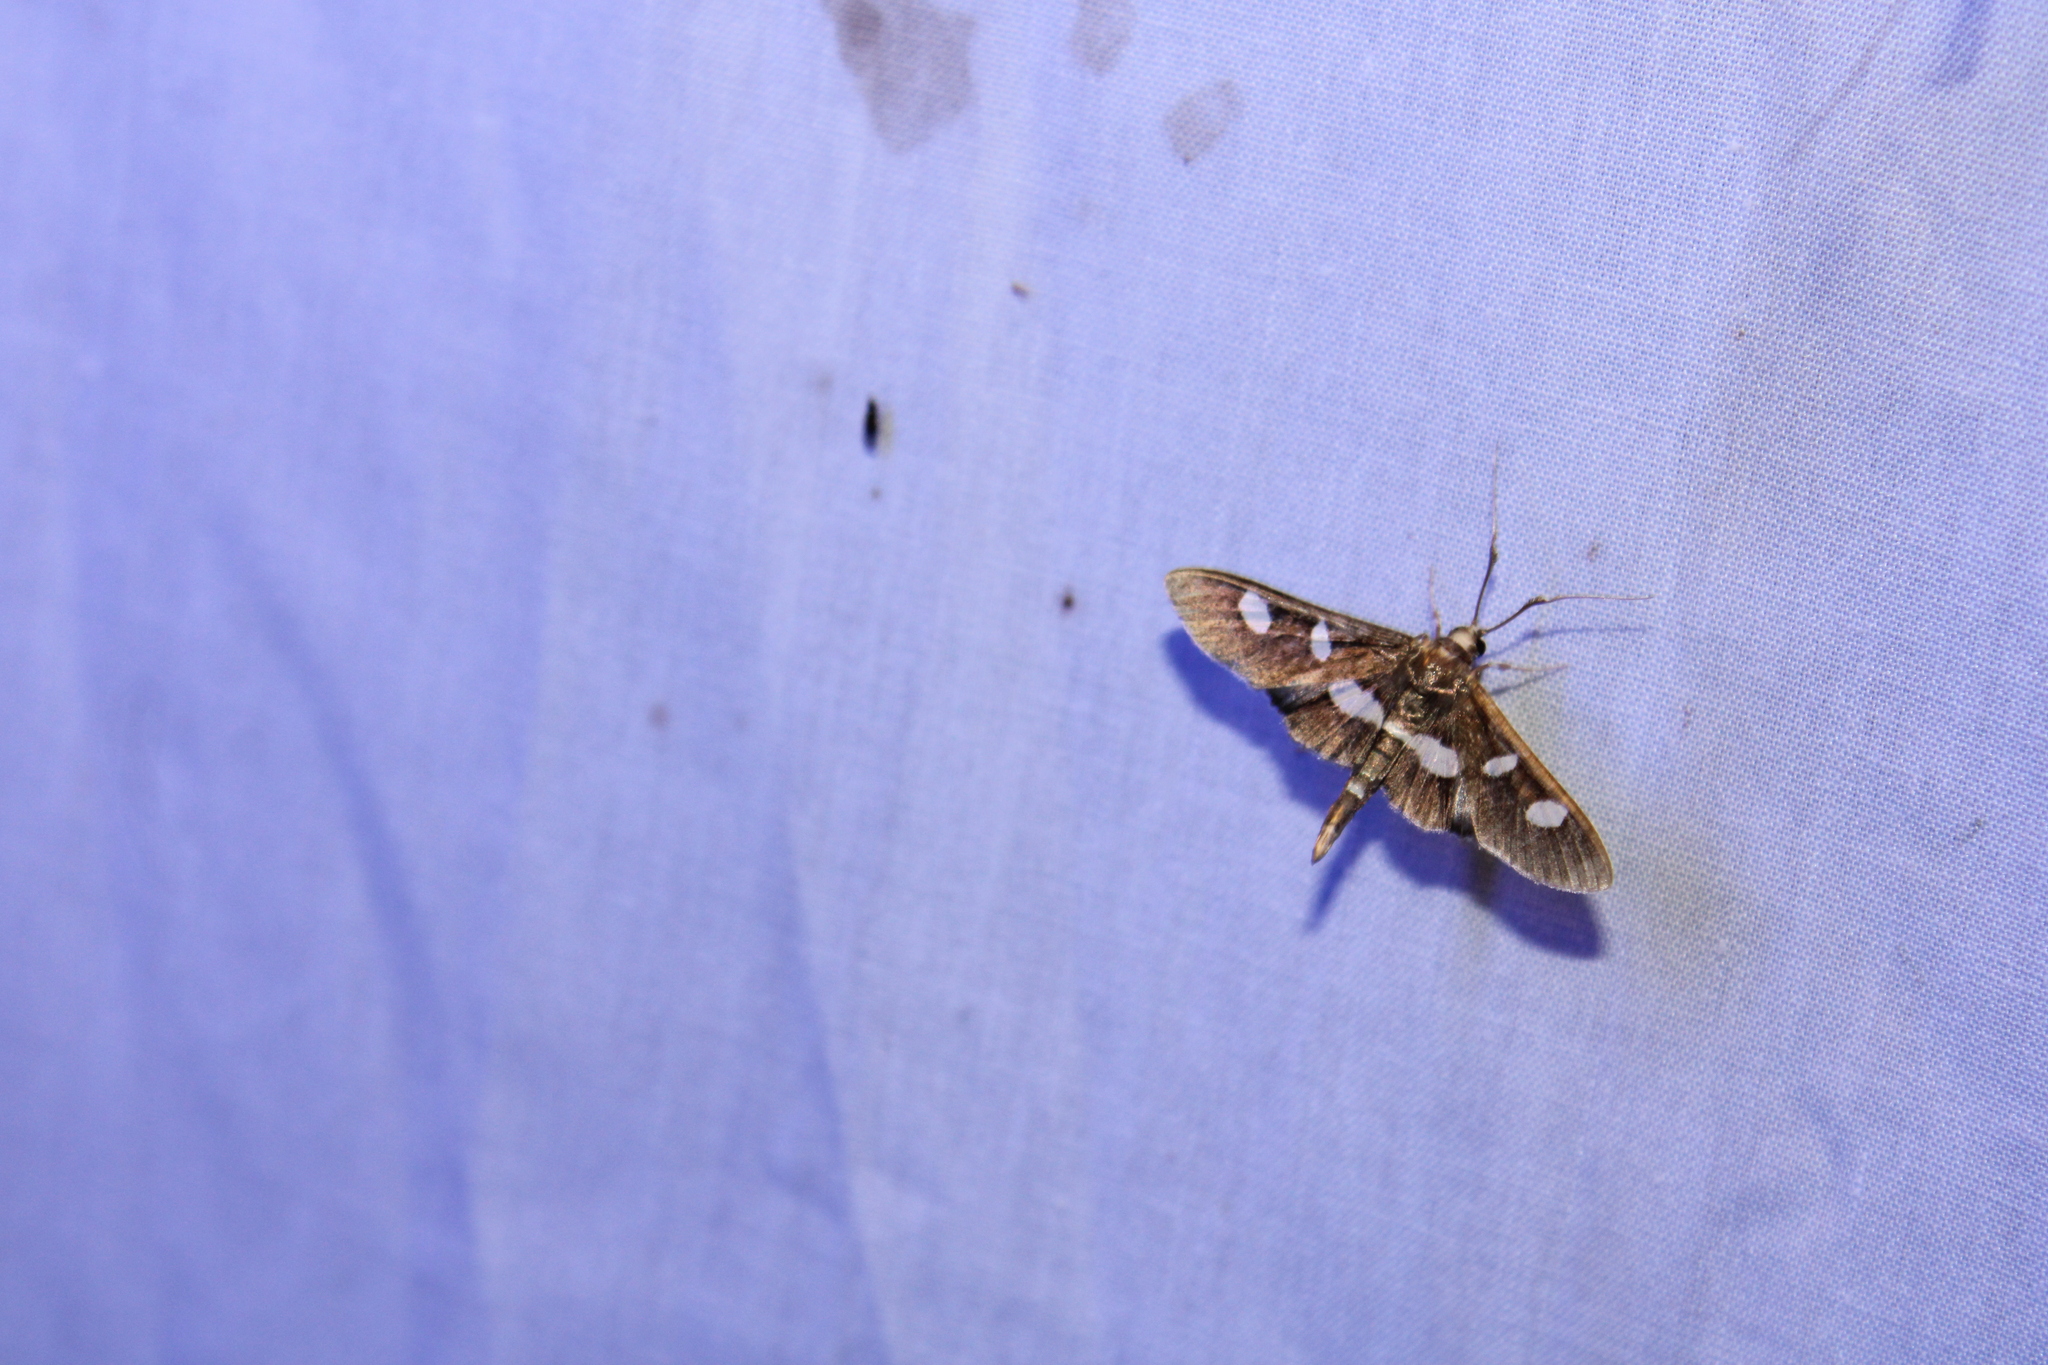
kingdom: Animalia
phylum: Arthropoda
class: Insecta
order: Lepidoptera
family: Crambidae
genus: Desmia
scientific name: Desmia
